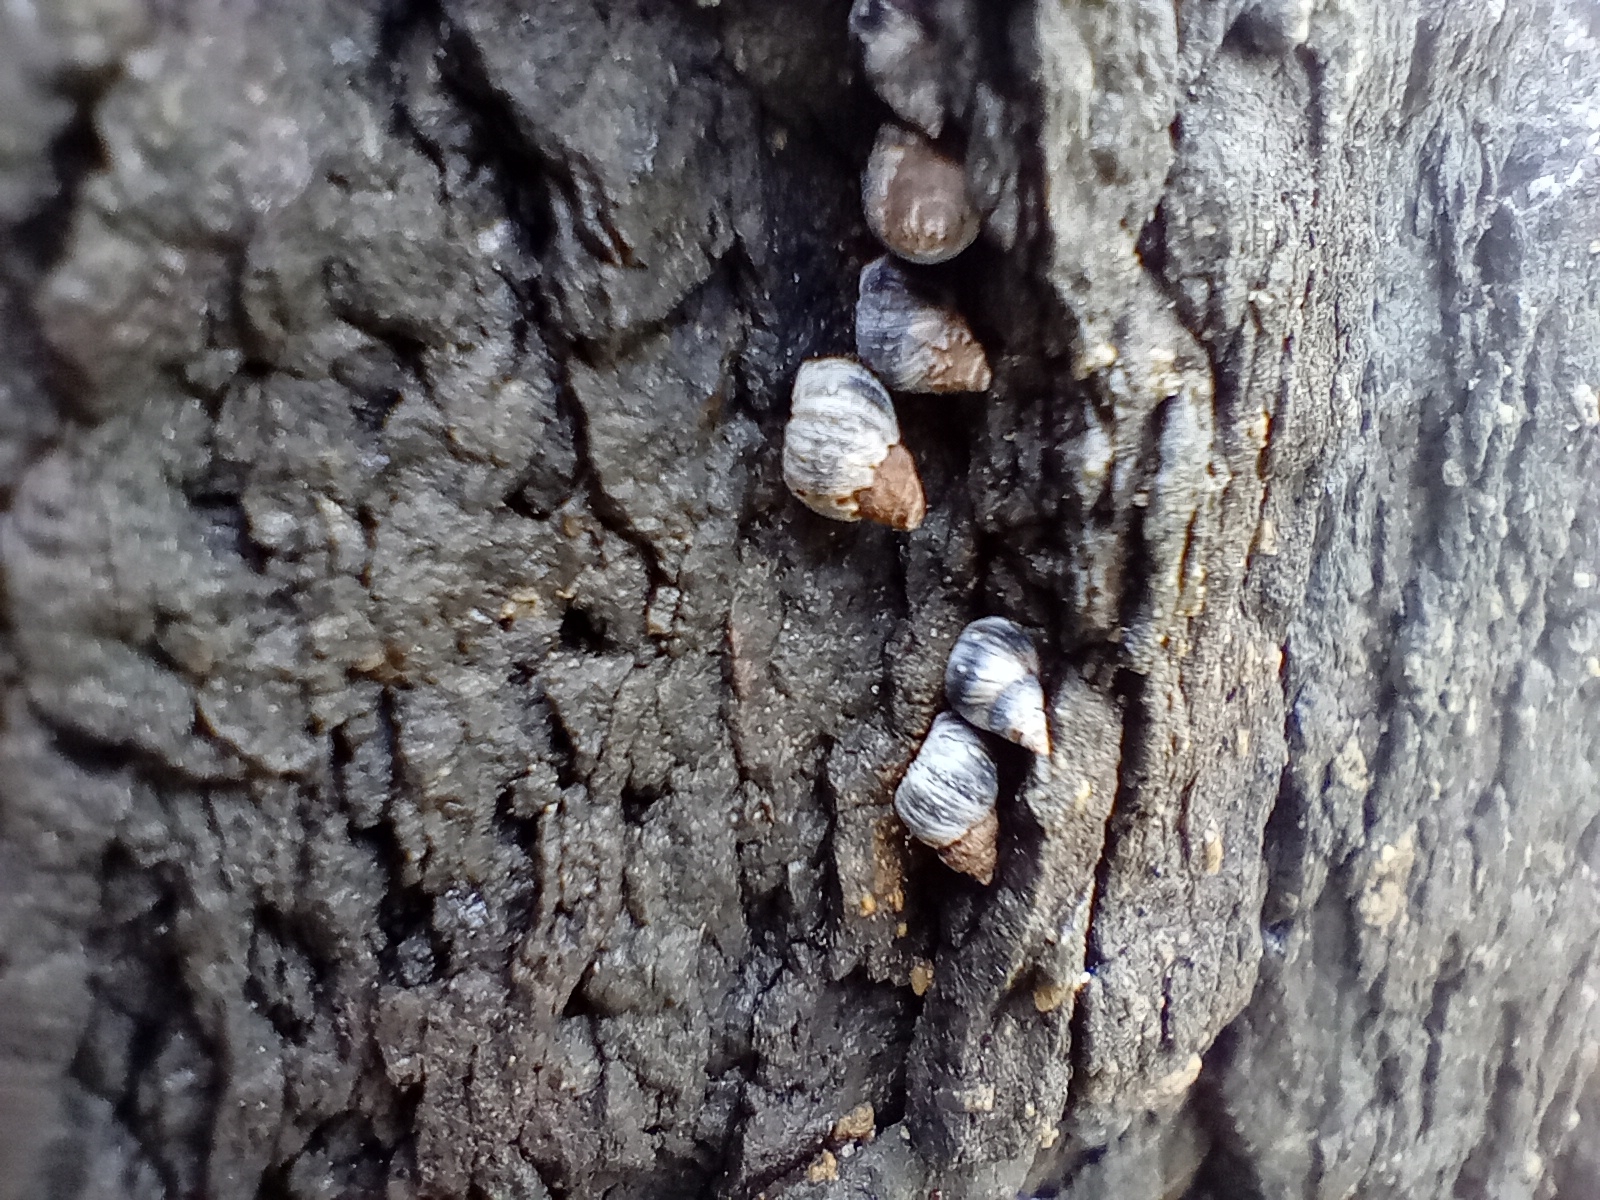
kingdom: Animalia
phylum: Mollusca
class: Gastropoda
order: Littorinimorpha
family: Littorinidae
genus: Austrolittorina
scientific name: Austrolittorina antipodum
